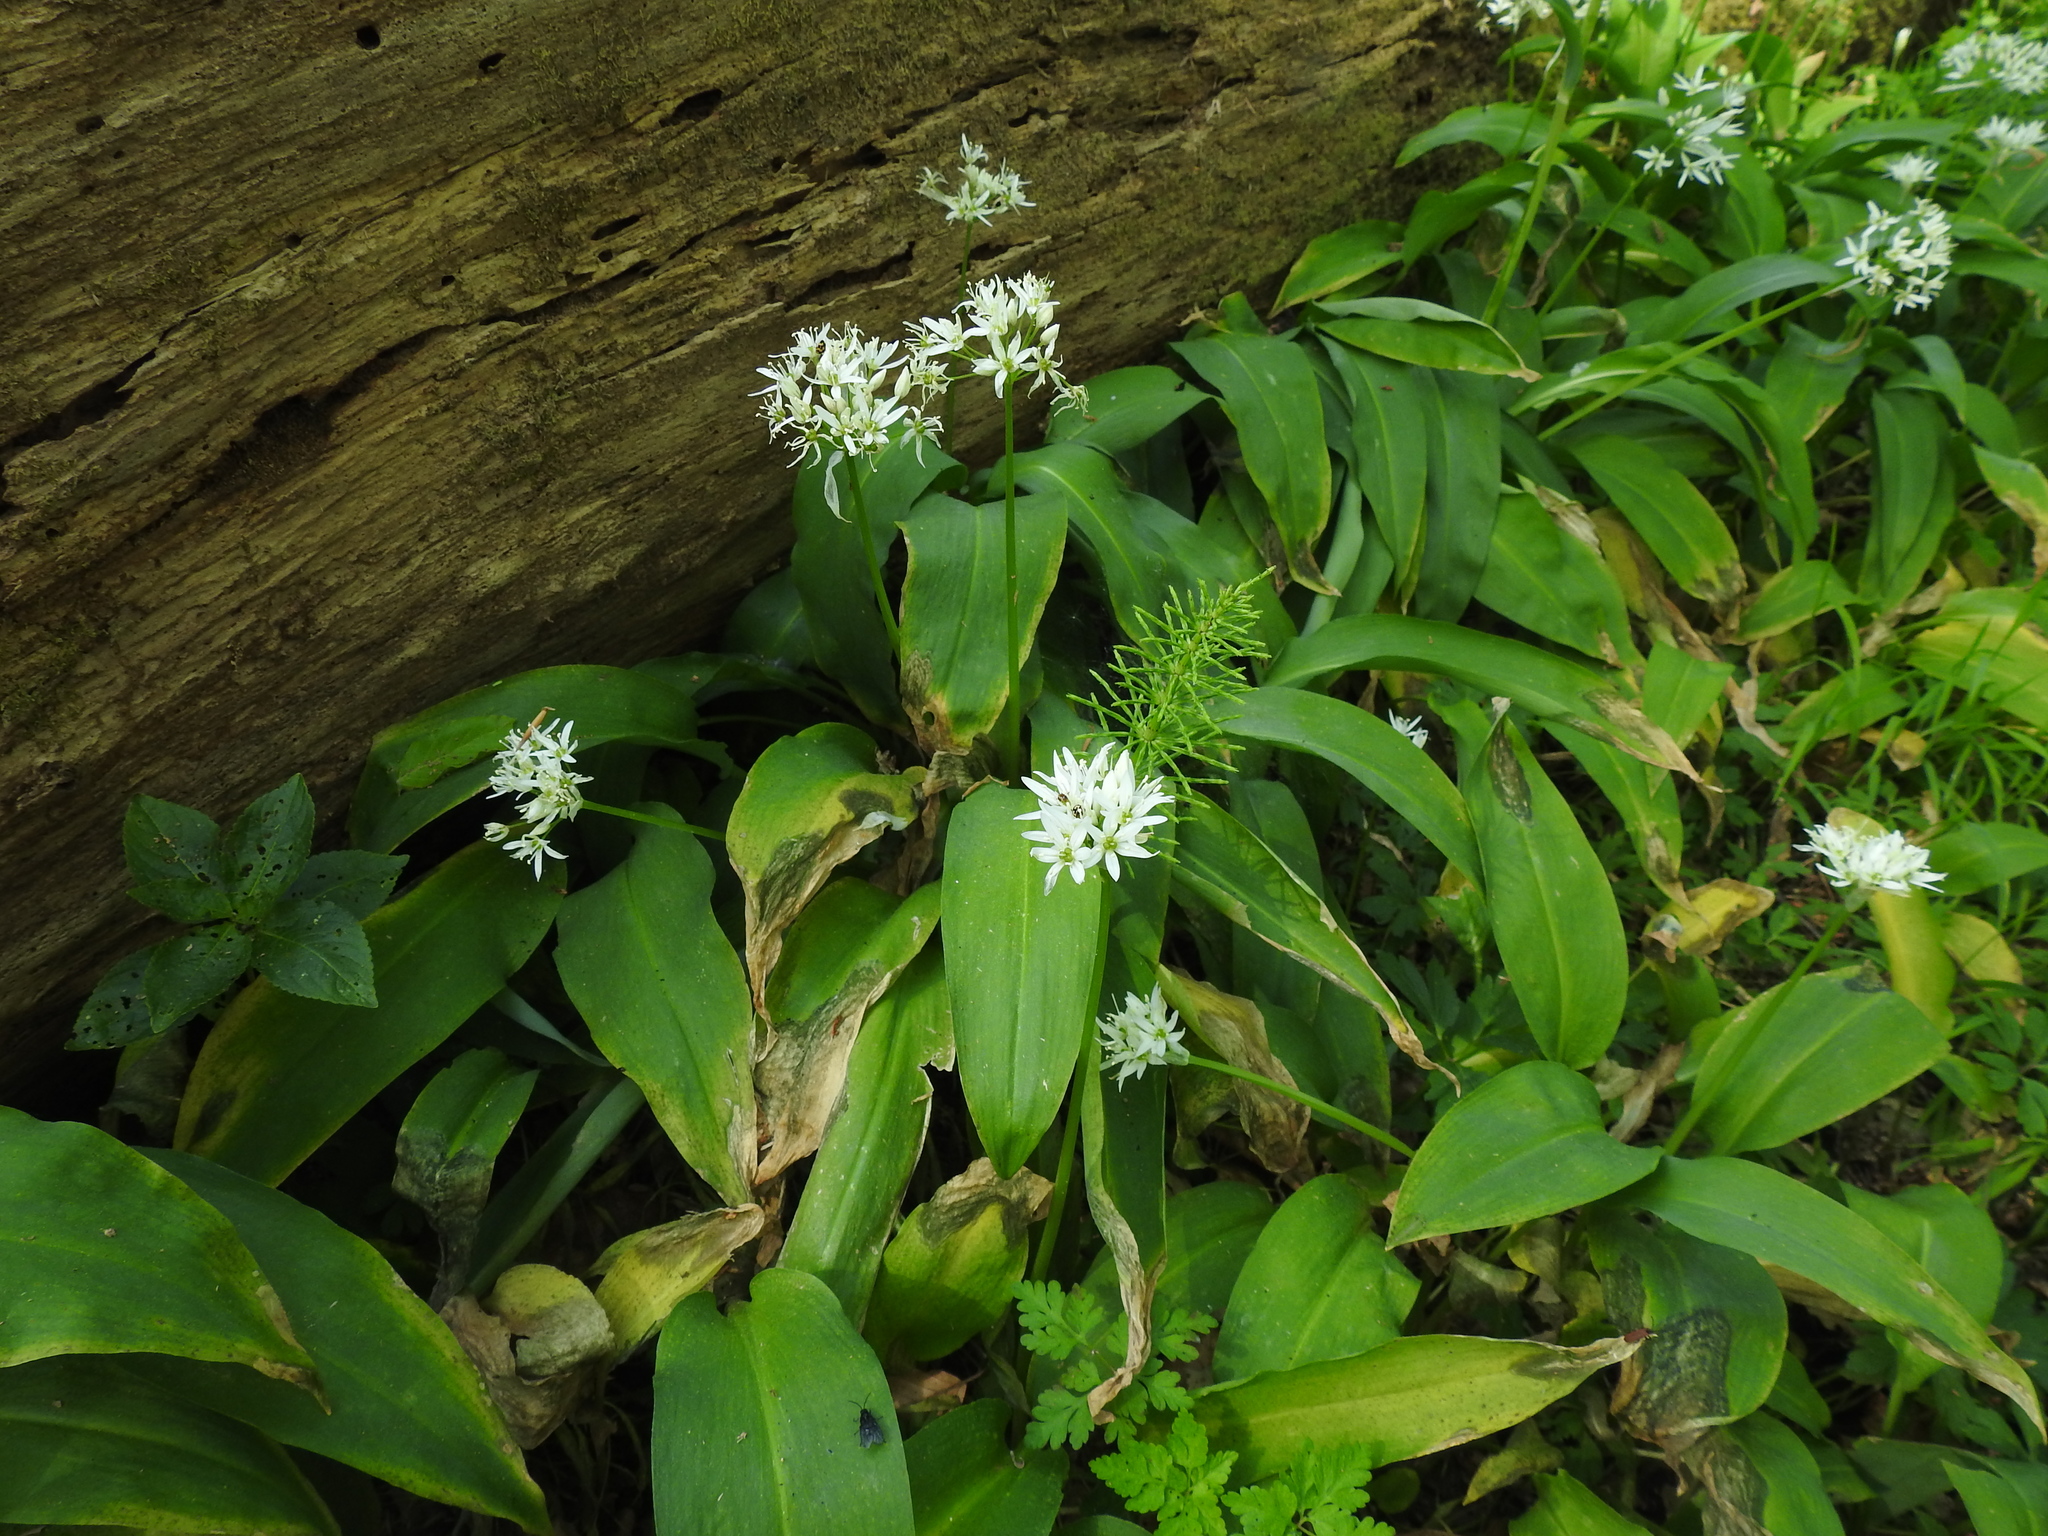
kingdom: Plantae
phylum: Tracheophyta
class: Liliopsida
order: Asparagales
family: Amaryllidaceae
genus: Allium
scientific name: Allium ursinum
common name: Ramsons
